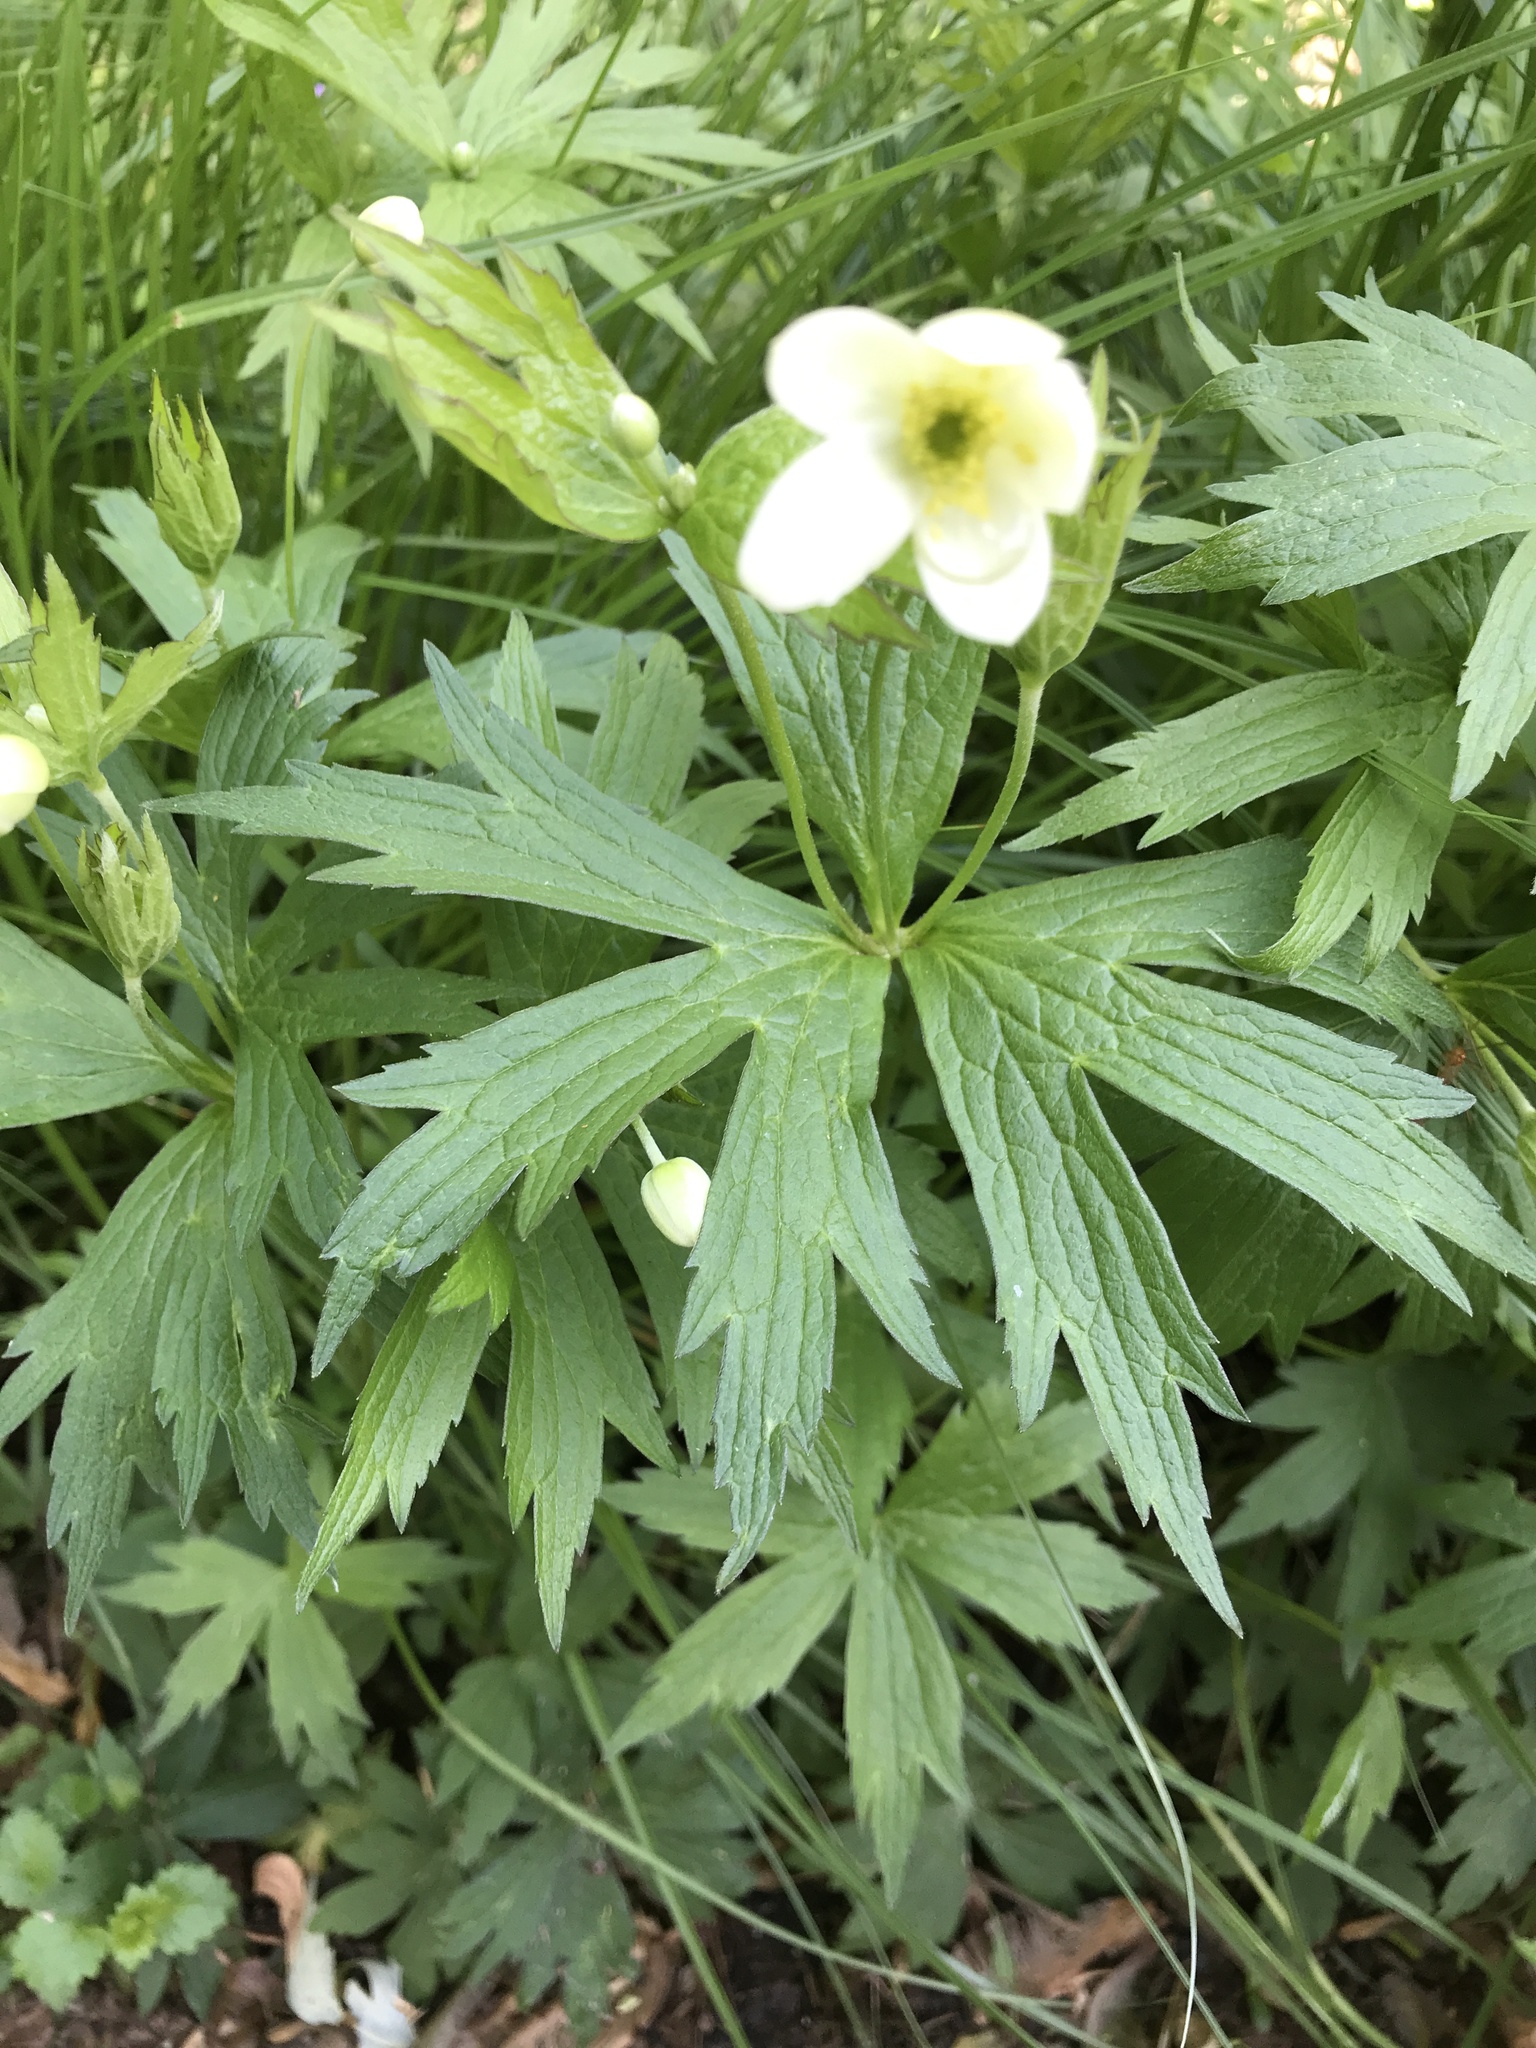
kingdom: Plantae
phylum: Tracheophyta
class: Magnoliopsida
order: Ranunculales
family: Ranunculaceae
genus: Anemonastrum
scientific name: Anemonastrum canadense
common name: Canada anemone
